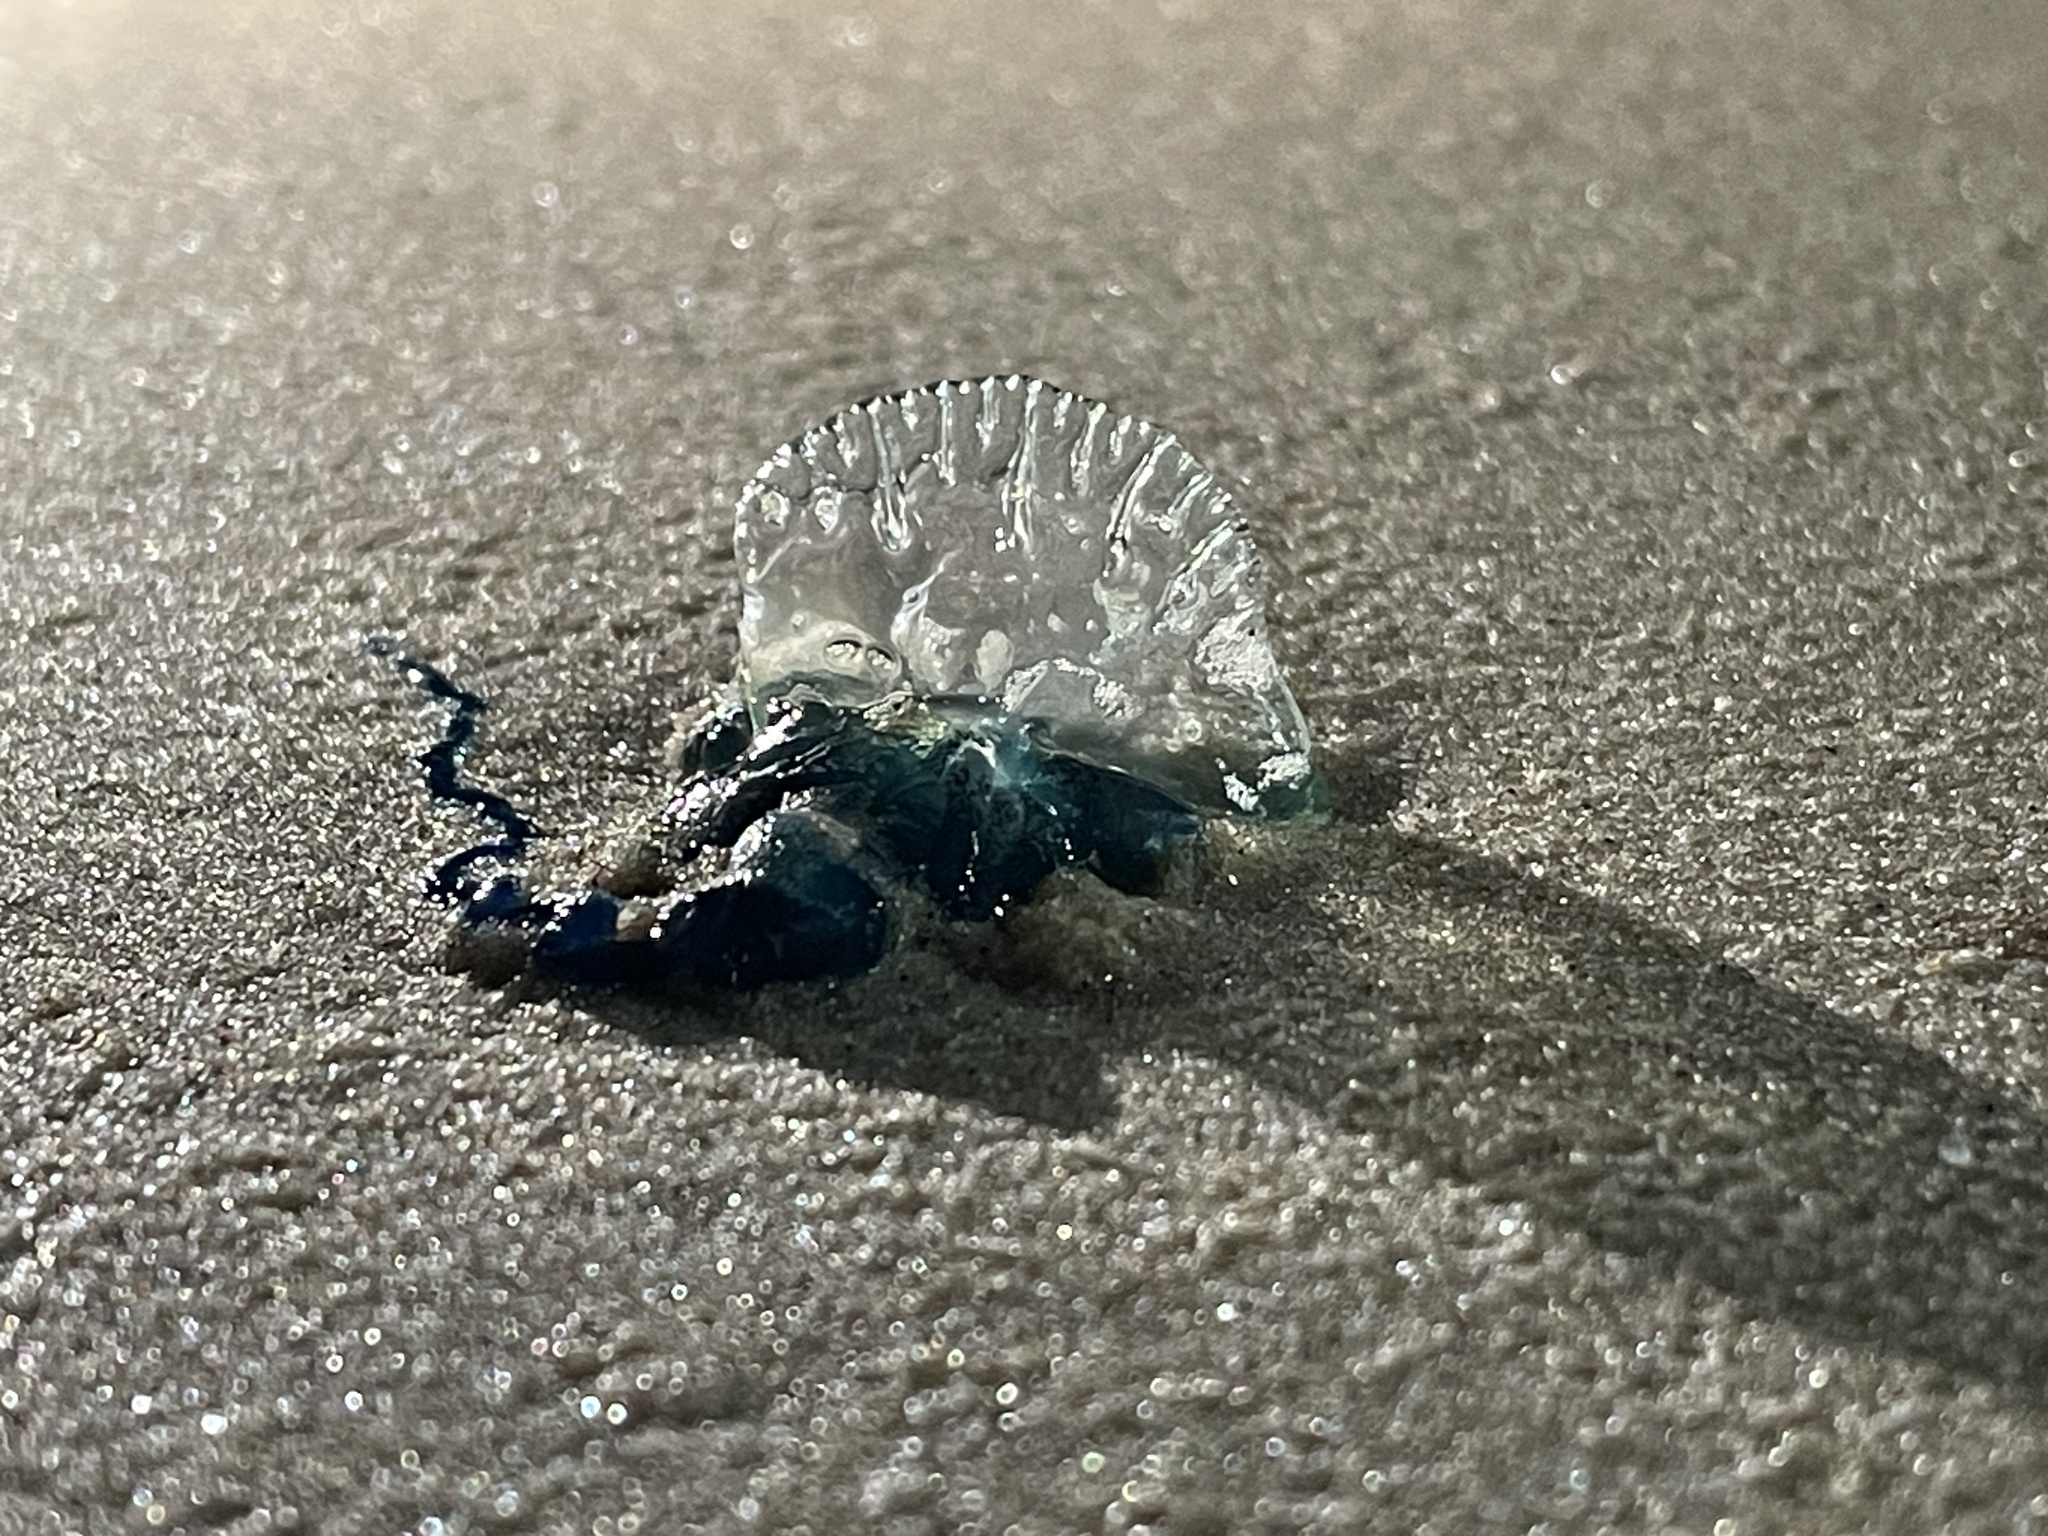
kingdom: Animalia
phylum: Cnidaria
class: Hydrozoa
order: Siphonophorae
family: Physaliidae
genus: Physalia
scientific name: Physalia physalis
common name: Portuguese man-of-war
